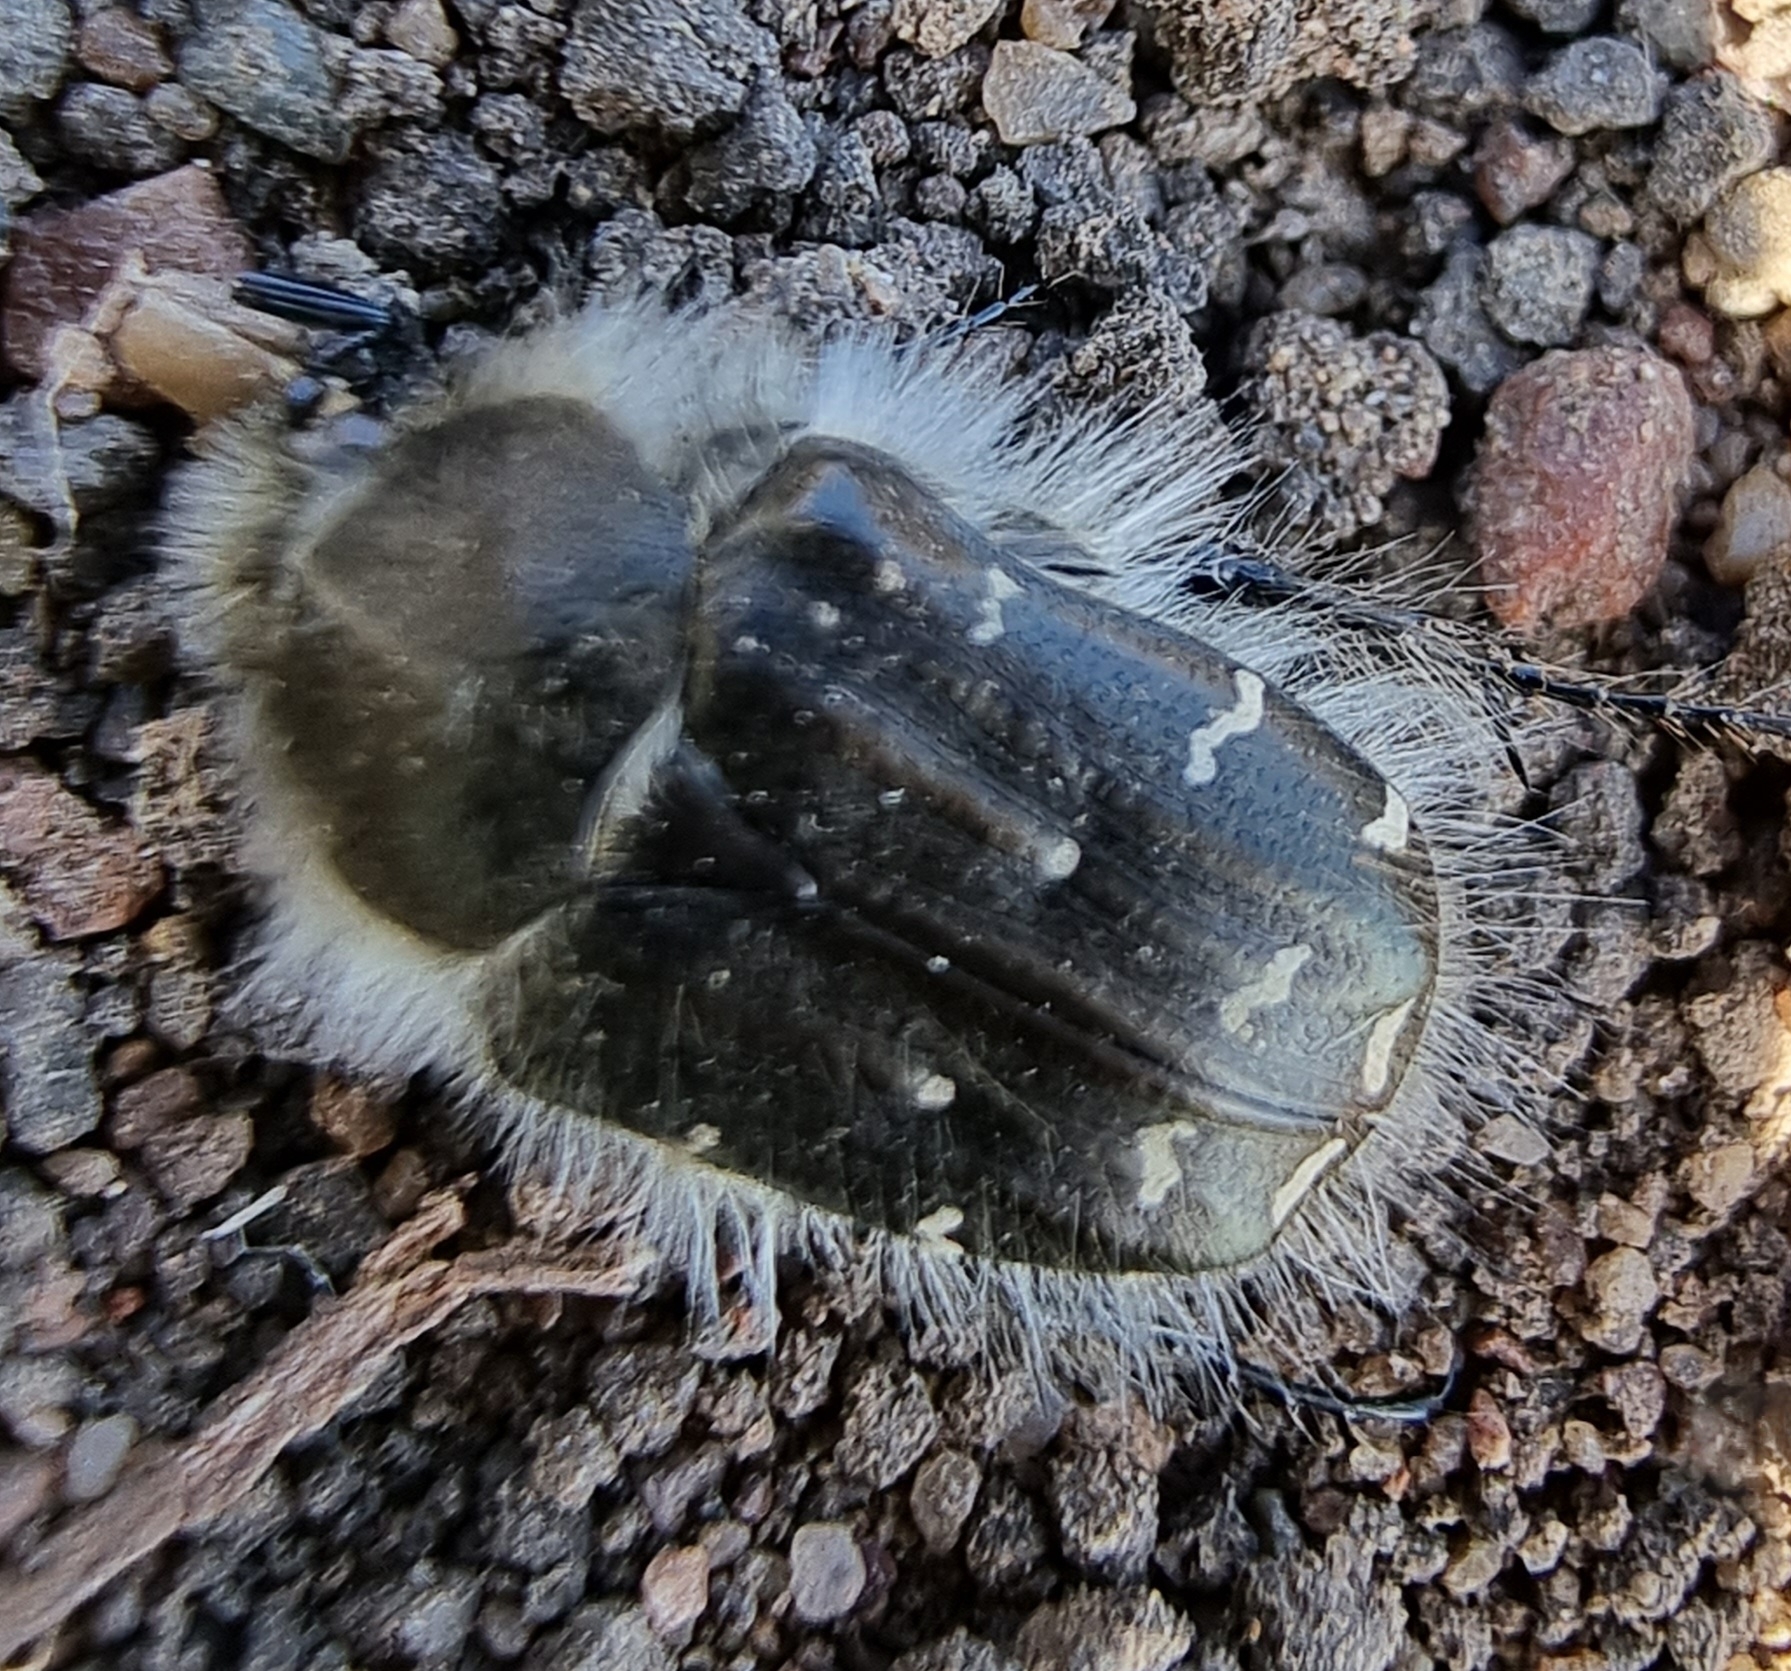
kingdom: Animalia
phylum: Arthropoda
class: Insecta
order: Coleoptera
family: Scarabaeidae
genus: Tropinota
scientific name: Tropinota hirta
